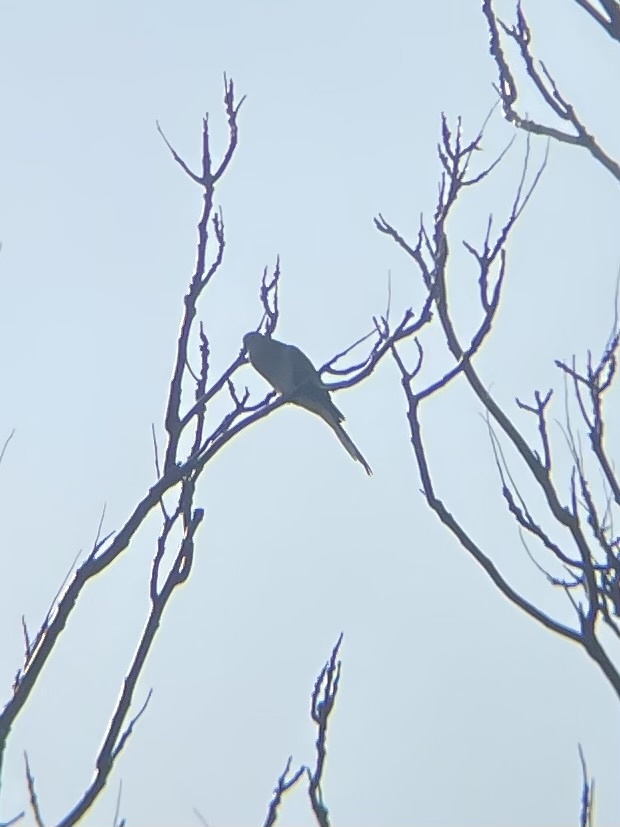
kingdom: Animalia
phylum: Chordata
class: Aves
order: Columbiformes
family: Columbidae
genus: Zenaida
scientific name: Zenaida macroura
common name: Mourning dove
